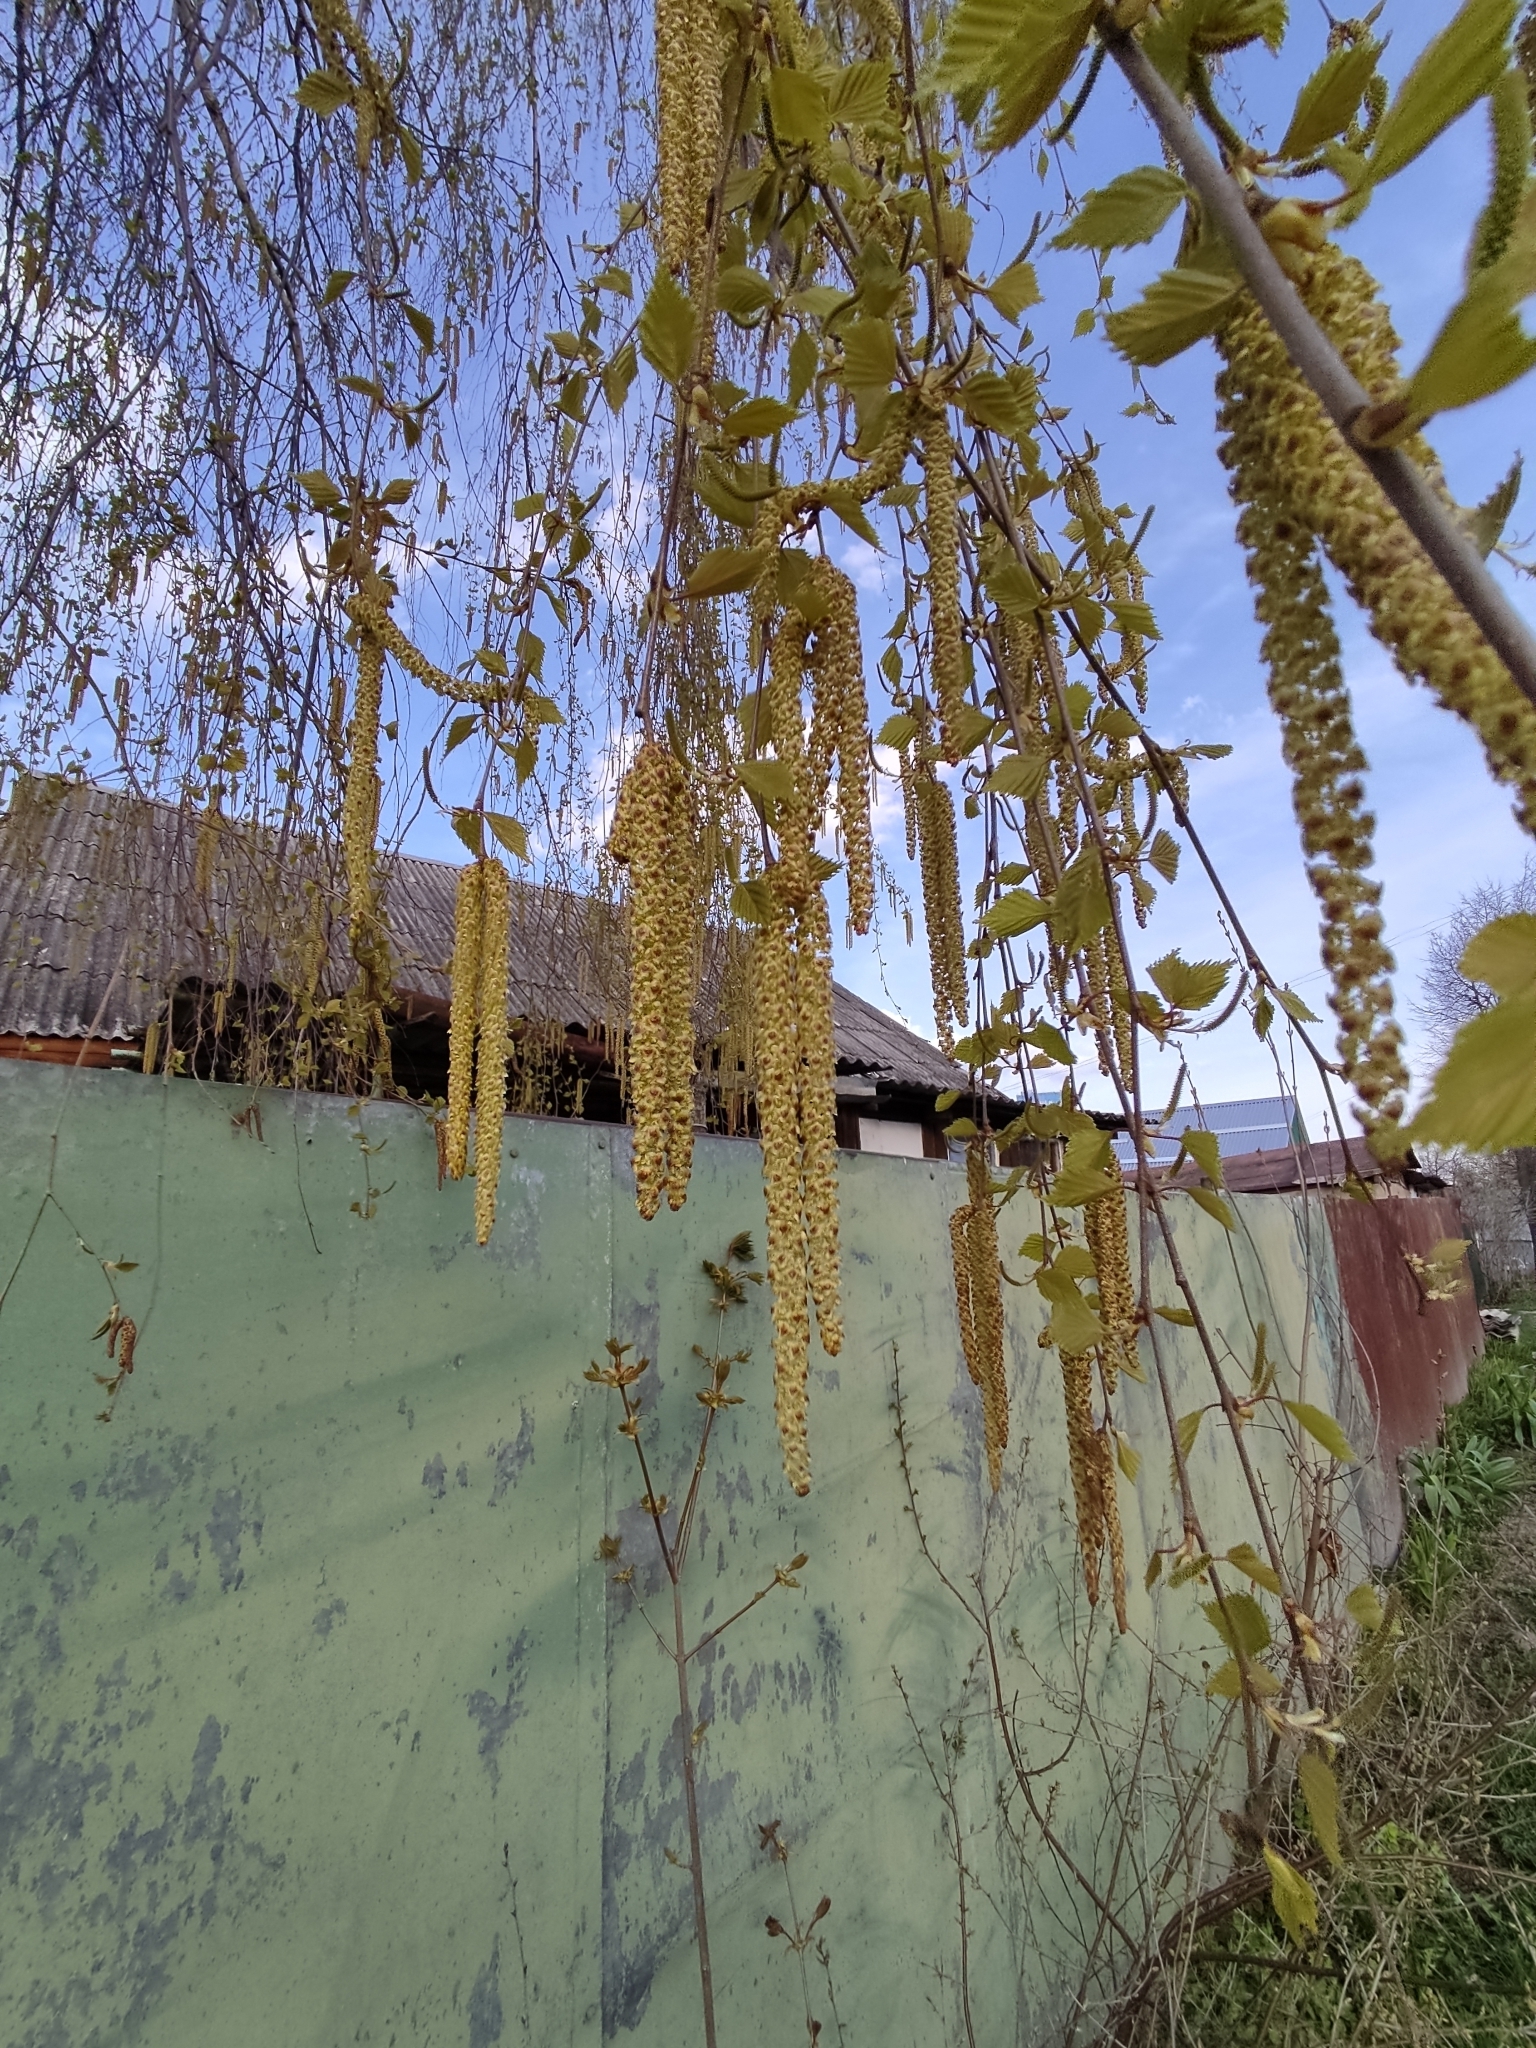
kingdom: Plantae
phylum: Tracheophyta
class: Magnoliopsida
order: Fagales
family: Betulaceae
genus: Betula
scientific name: Betula pendula
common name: Silver birch
